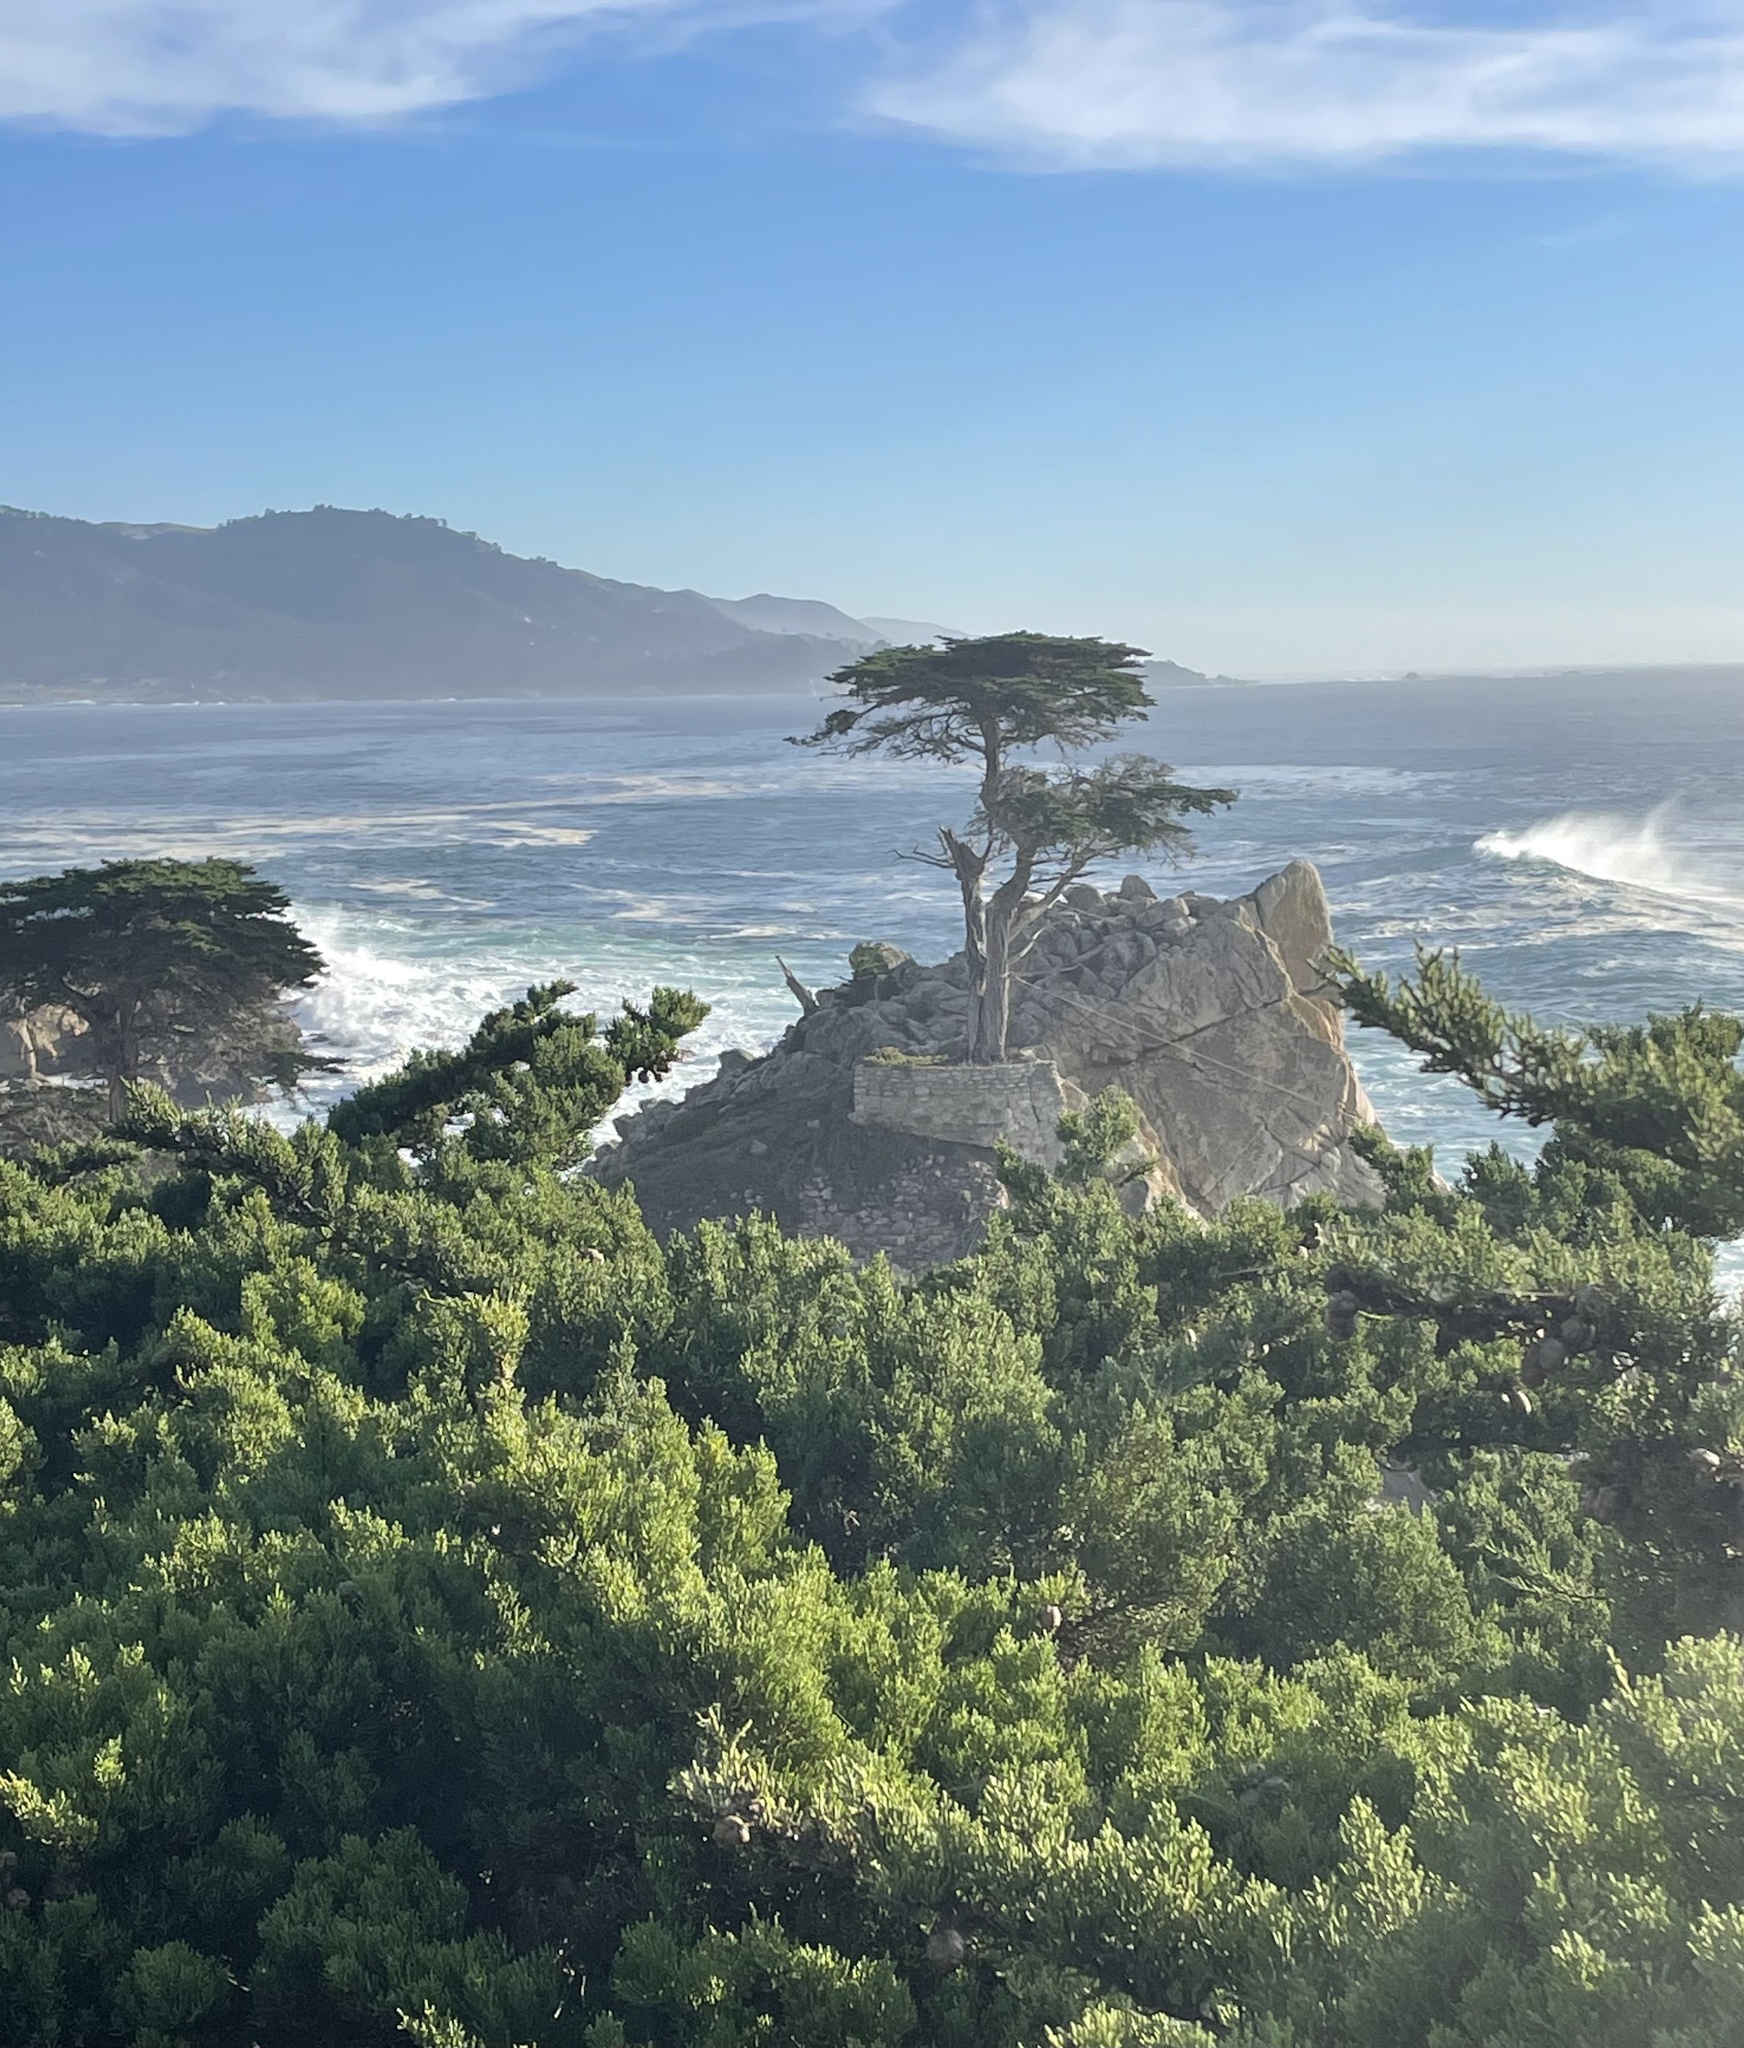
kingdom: Plantae
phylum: Tracheophyta
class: Pinopsida
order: Pinales
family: Cupressaceae
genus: Cupressus
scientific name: Cupressus macrocarpa
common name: Monterey cypress
